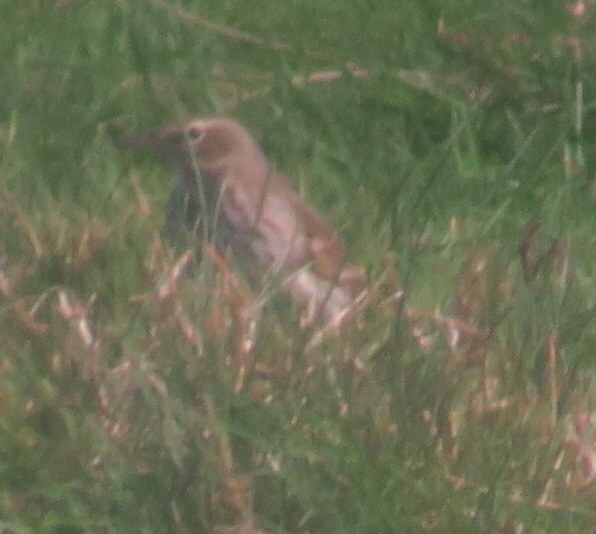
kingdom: Animalia
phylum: Chordata
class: Aves
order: Passeriformes
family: Motacillidae
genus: Anthus
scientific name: Anthus spinoletta
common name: Water pipit
